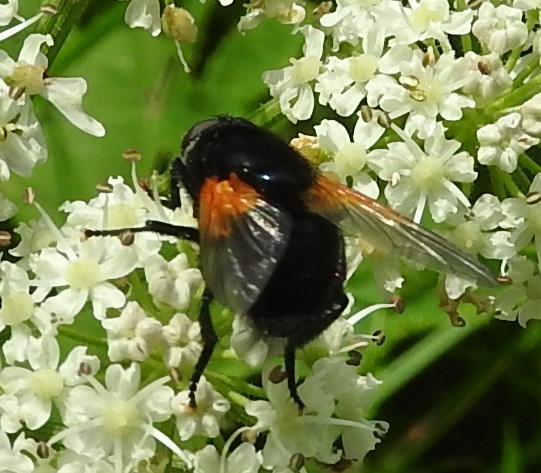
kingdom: Animalia
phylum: Arthropoda
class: Insecta
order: Diptera
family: Muscidae
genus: Mesembrina
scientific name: Mesembrina meridiana
